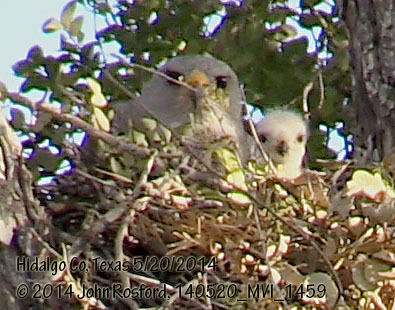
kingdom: Animalia
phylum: Chordata
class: Aves
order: Accipitriformes
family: Accipitridae
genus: Buteo
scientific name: Buteo nitidus
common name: Grey-lined hawk
